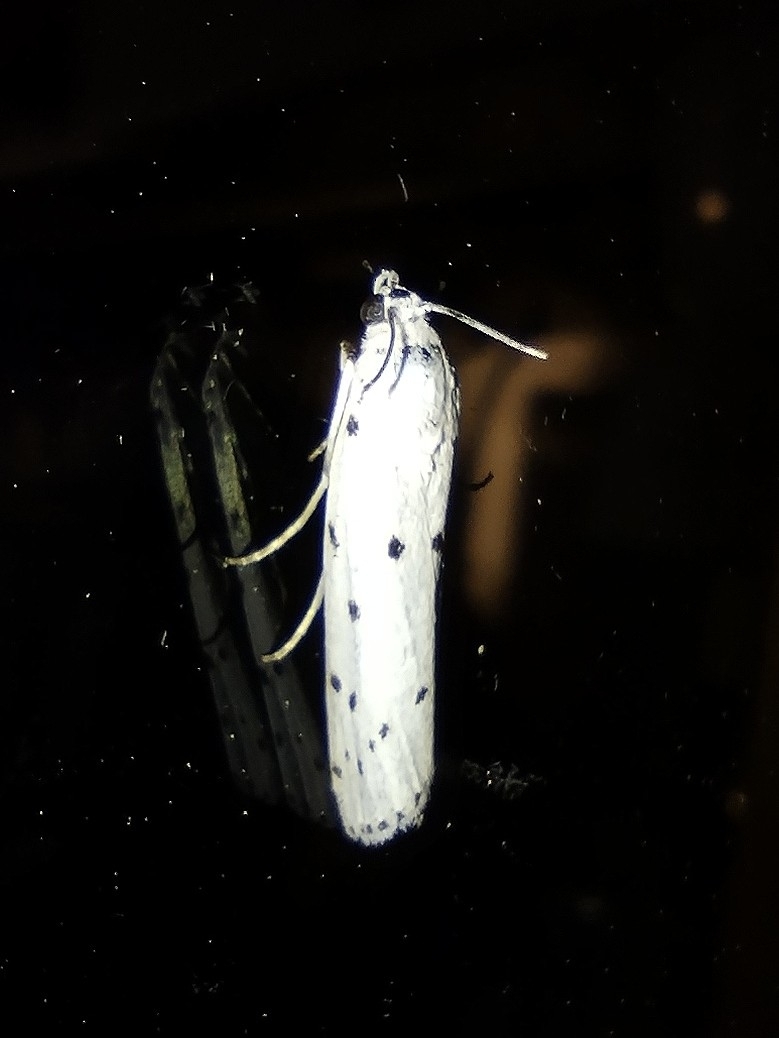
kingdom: Animalia
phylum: Arthropoda
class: Insecta
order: Lepidoptera
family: Pyralidae
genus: Myelois
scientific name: Myelois circumvoluta
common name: Thistle ermine
